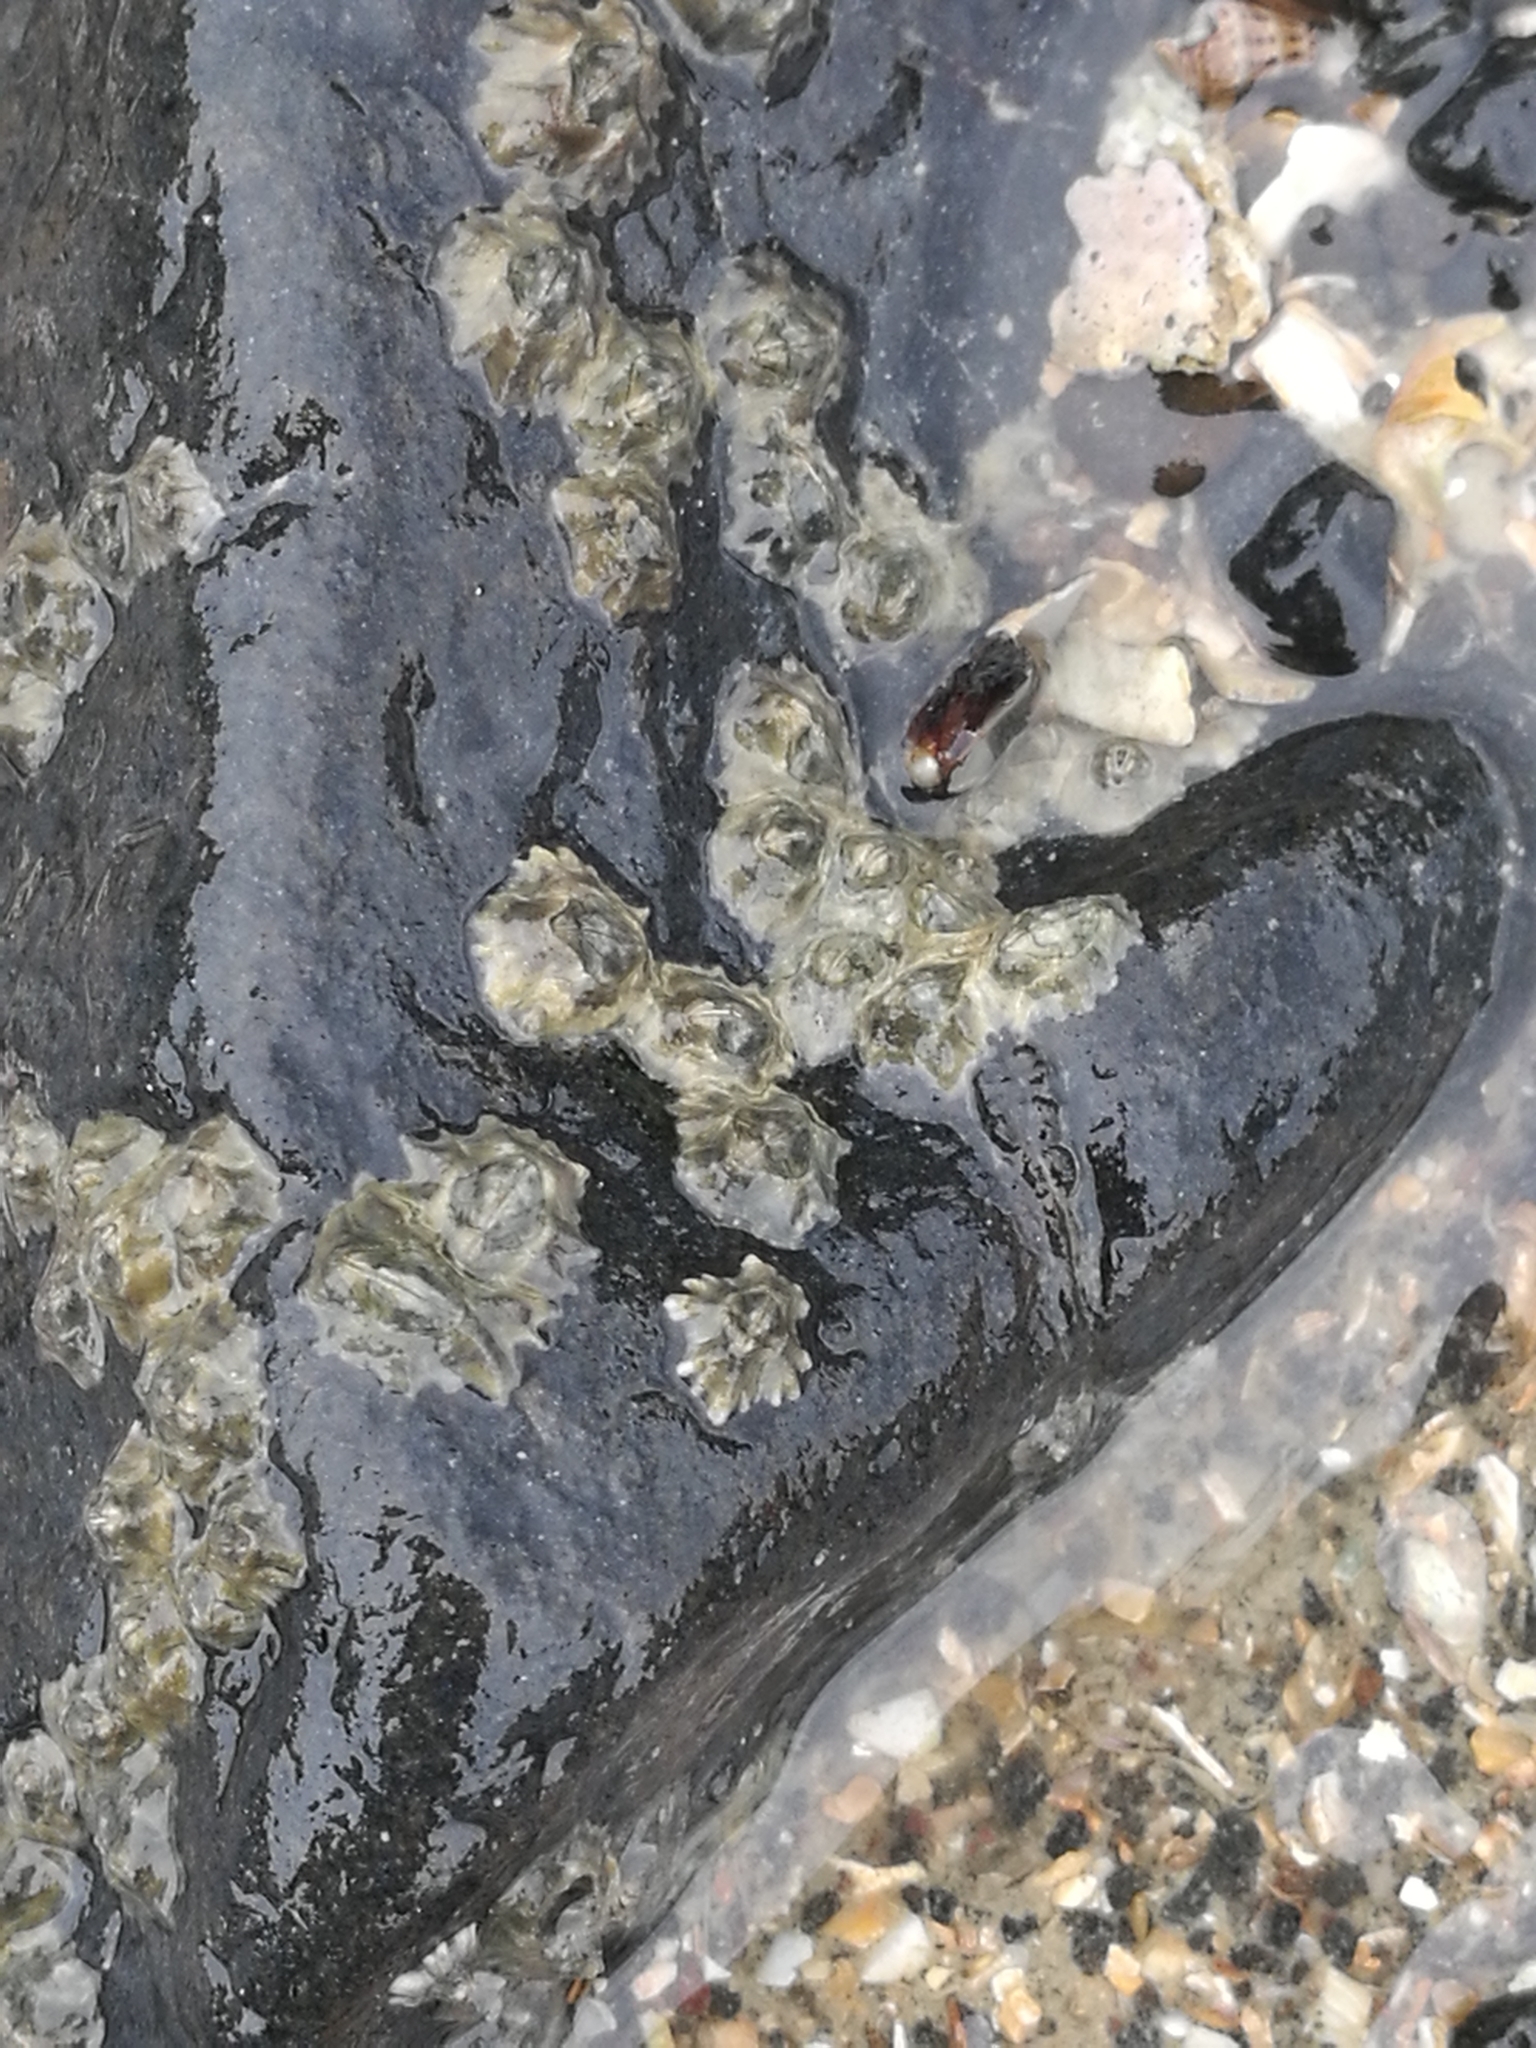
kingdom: Animalia
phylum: Arthropoda
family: Elminiidae
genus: Austrominius
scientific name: Austrominius modestus
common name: Australasian barnacle
